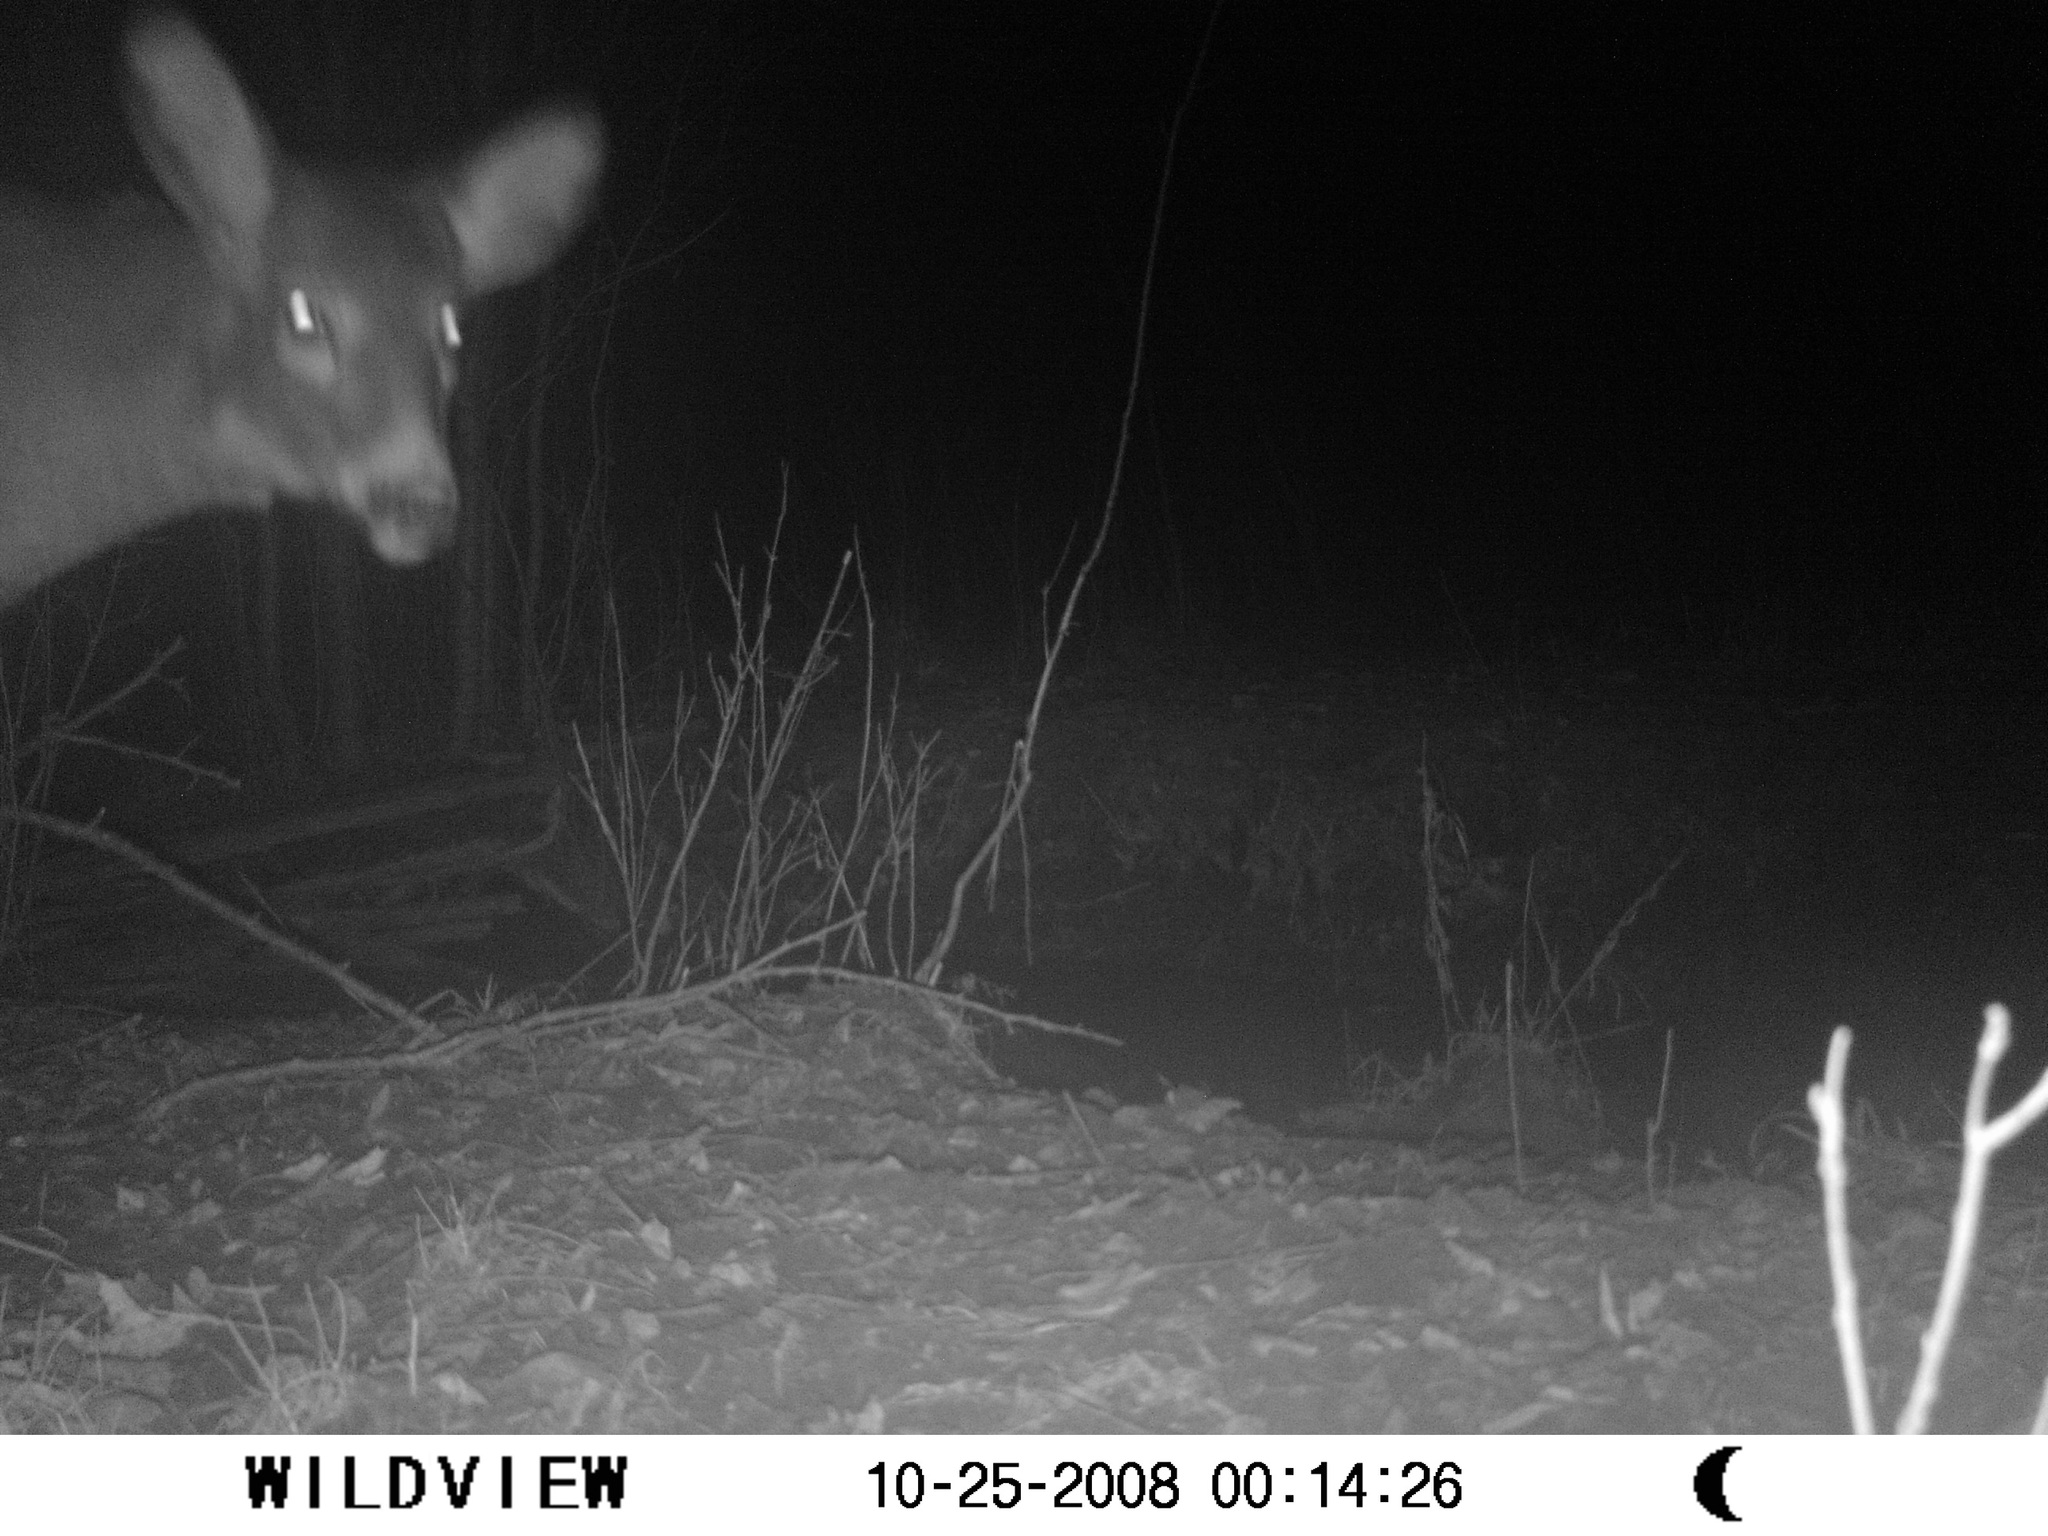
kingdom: Animalia
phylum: Chordata
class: Mammalia
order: Artiodactyla
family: Cervidae
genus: Odocoileus
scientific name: Odocoileus virginianus
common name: White-tailed deer
